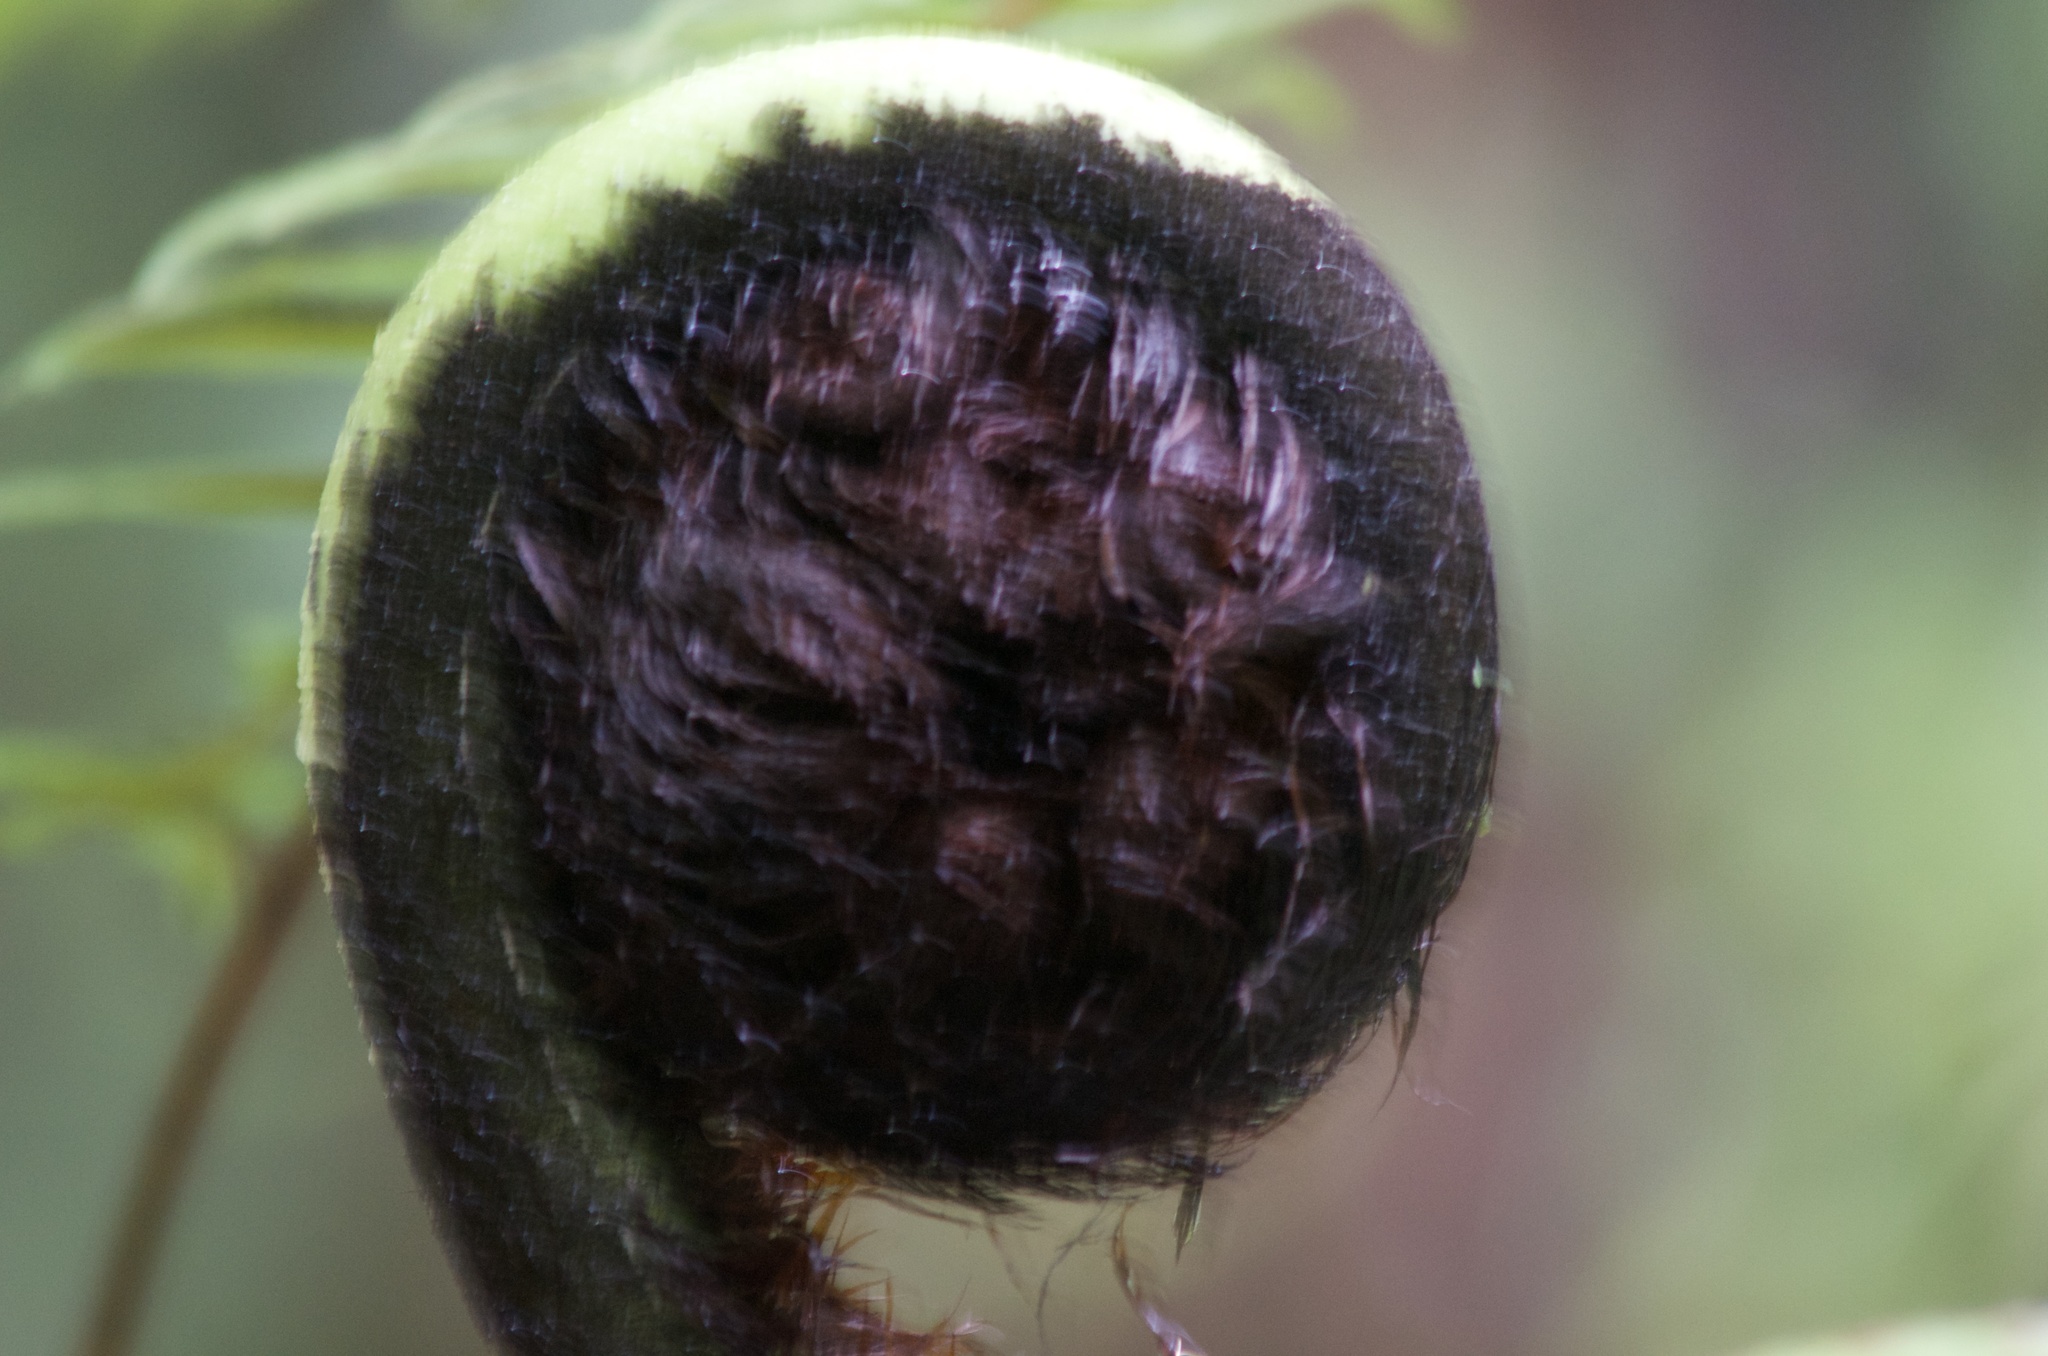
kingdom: Plantae
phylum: Tracheophyta
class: Polypodiopsida
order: Cyatheales
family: Cyatheaceae
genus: Sphaeropteris
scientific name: Sphaeropteris medullaris
